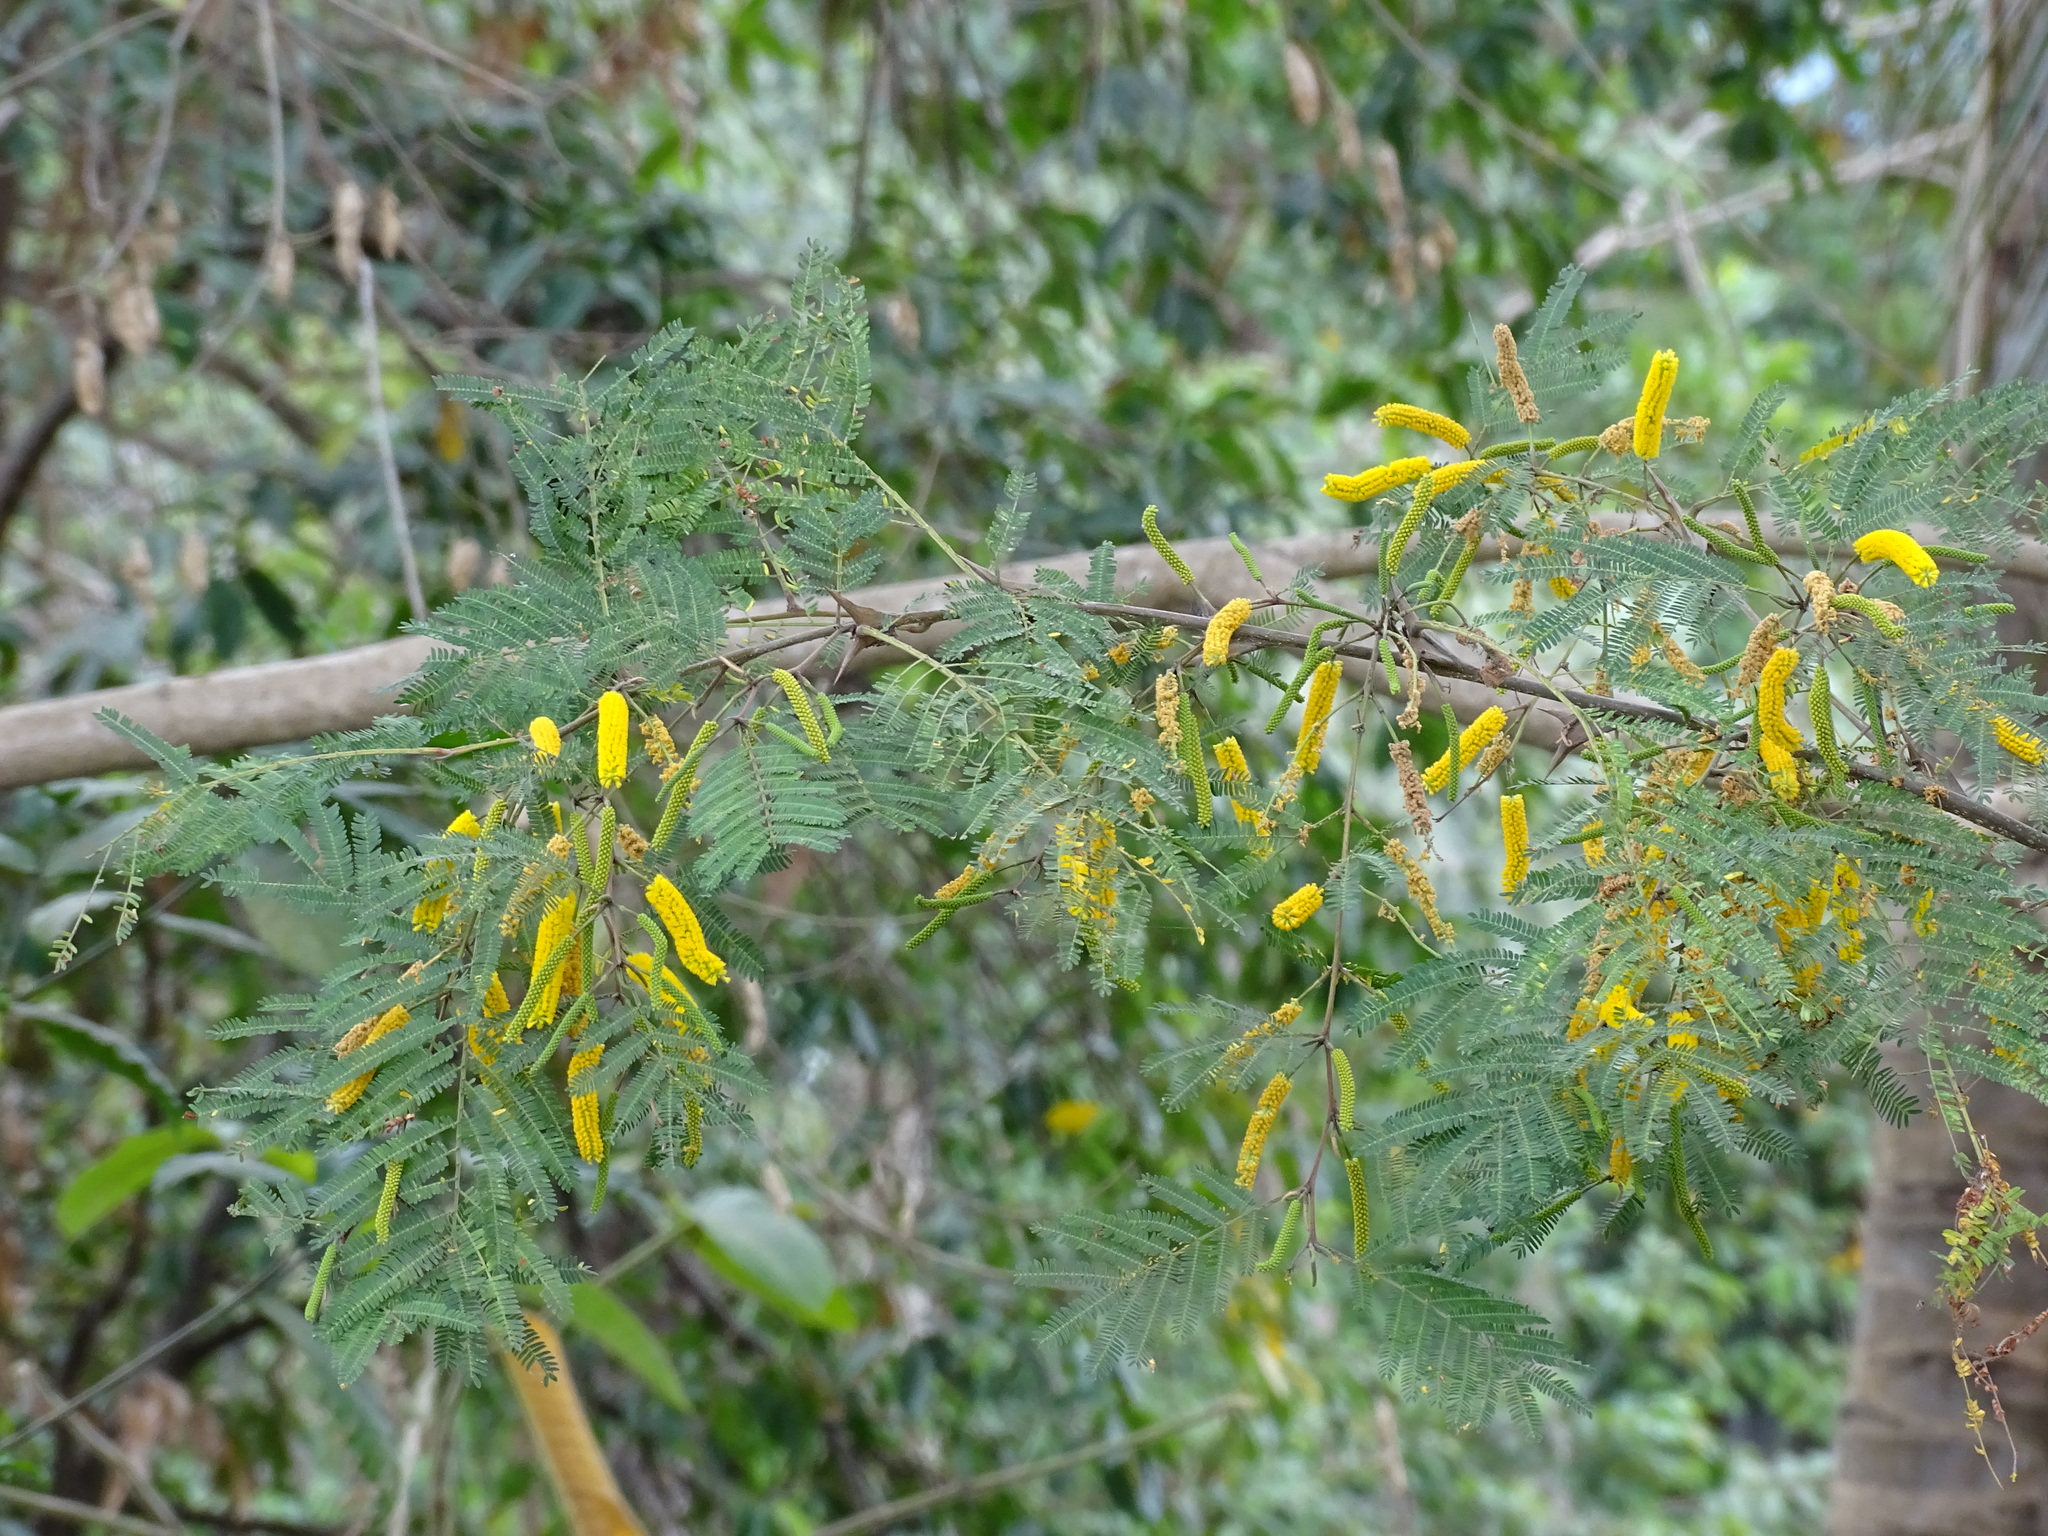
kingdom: Plantae
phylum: Tracheophyta
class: Magnoliopsida
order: Fabales
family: Fabaceae
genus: Vachellia
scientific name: Vachellia hindsii
